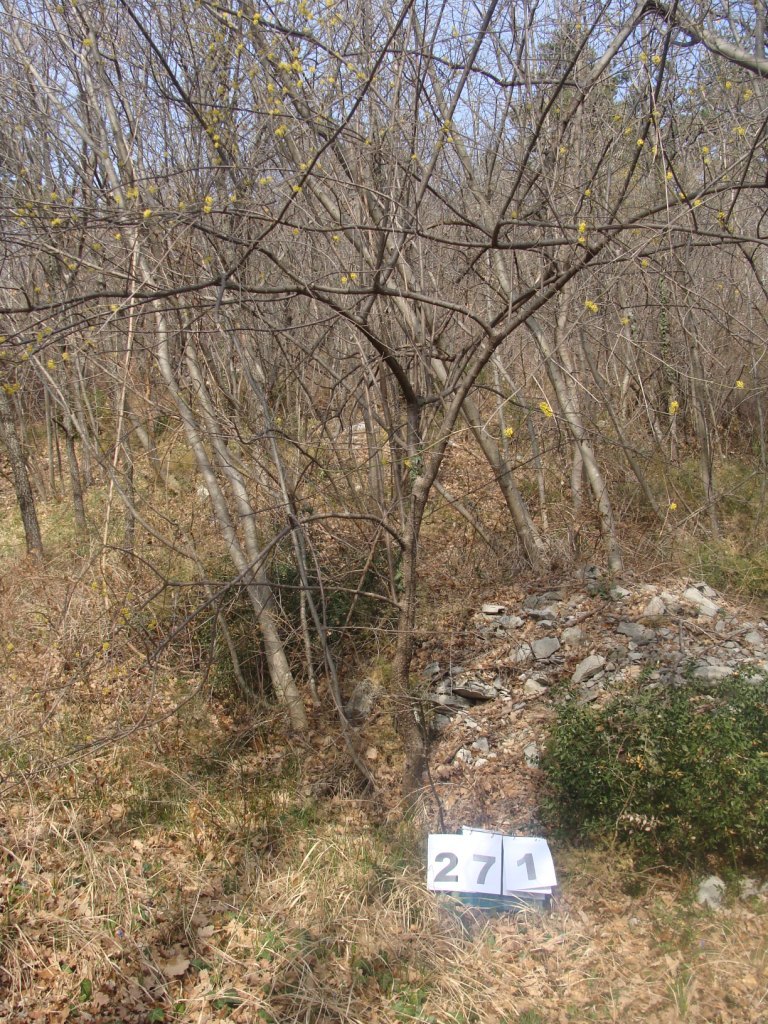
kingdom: Plantae
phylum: Tracheophyta
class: Magnoliopsida
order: Cornales
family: Cornaceae
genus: Cornus
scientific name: Cornus mas
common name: Cornelian-cherry
